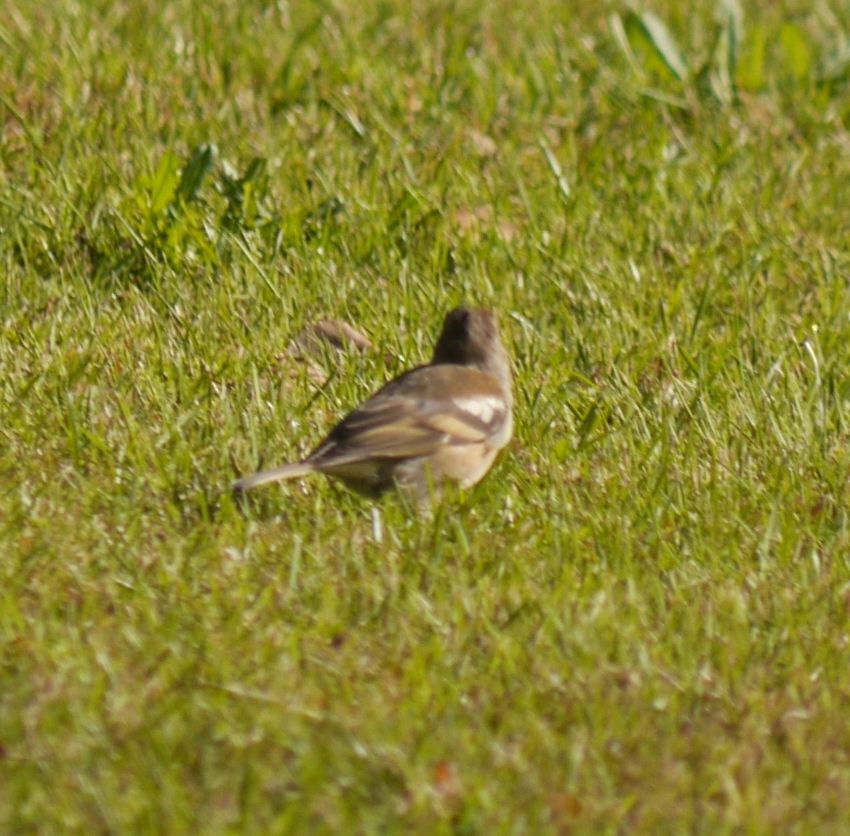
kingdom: Animalia
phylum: Chordata
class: Aves
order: Passeriformes
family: Fringillidae
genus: Fringilla
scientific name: Fringilla coelebs
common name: Common chaffinch
